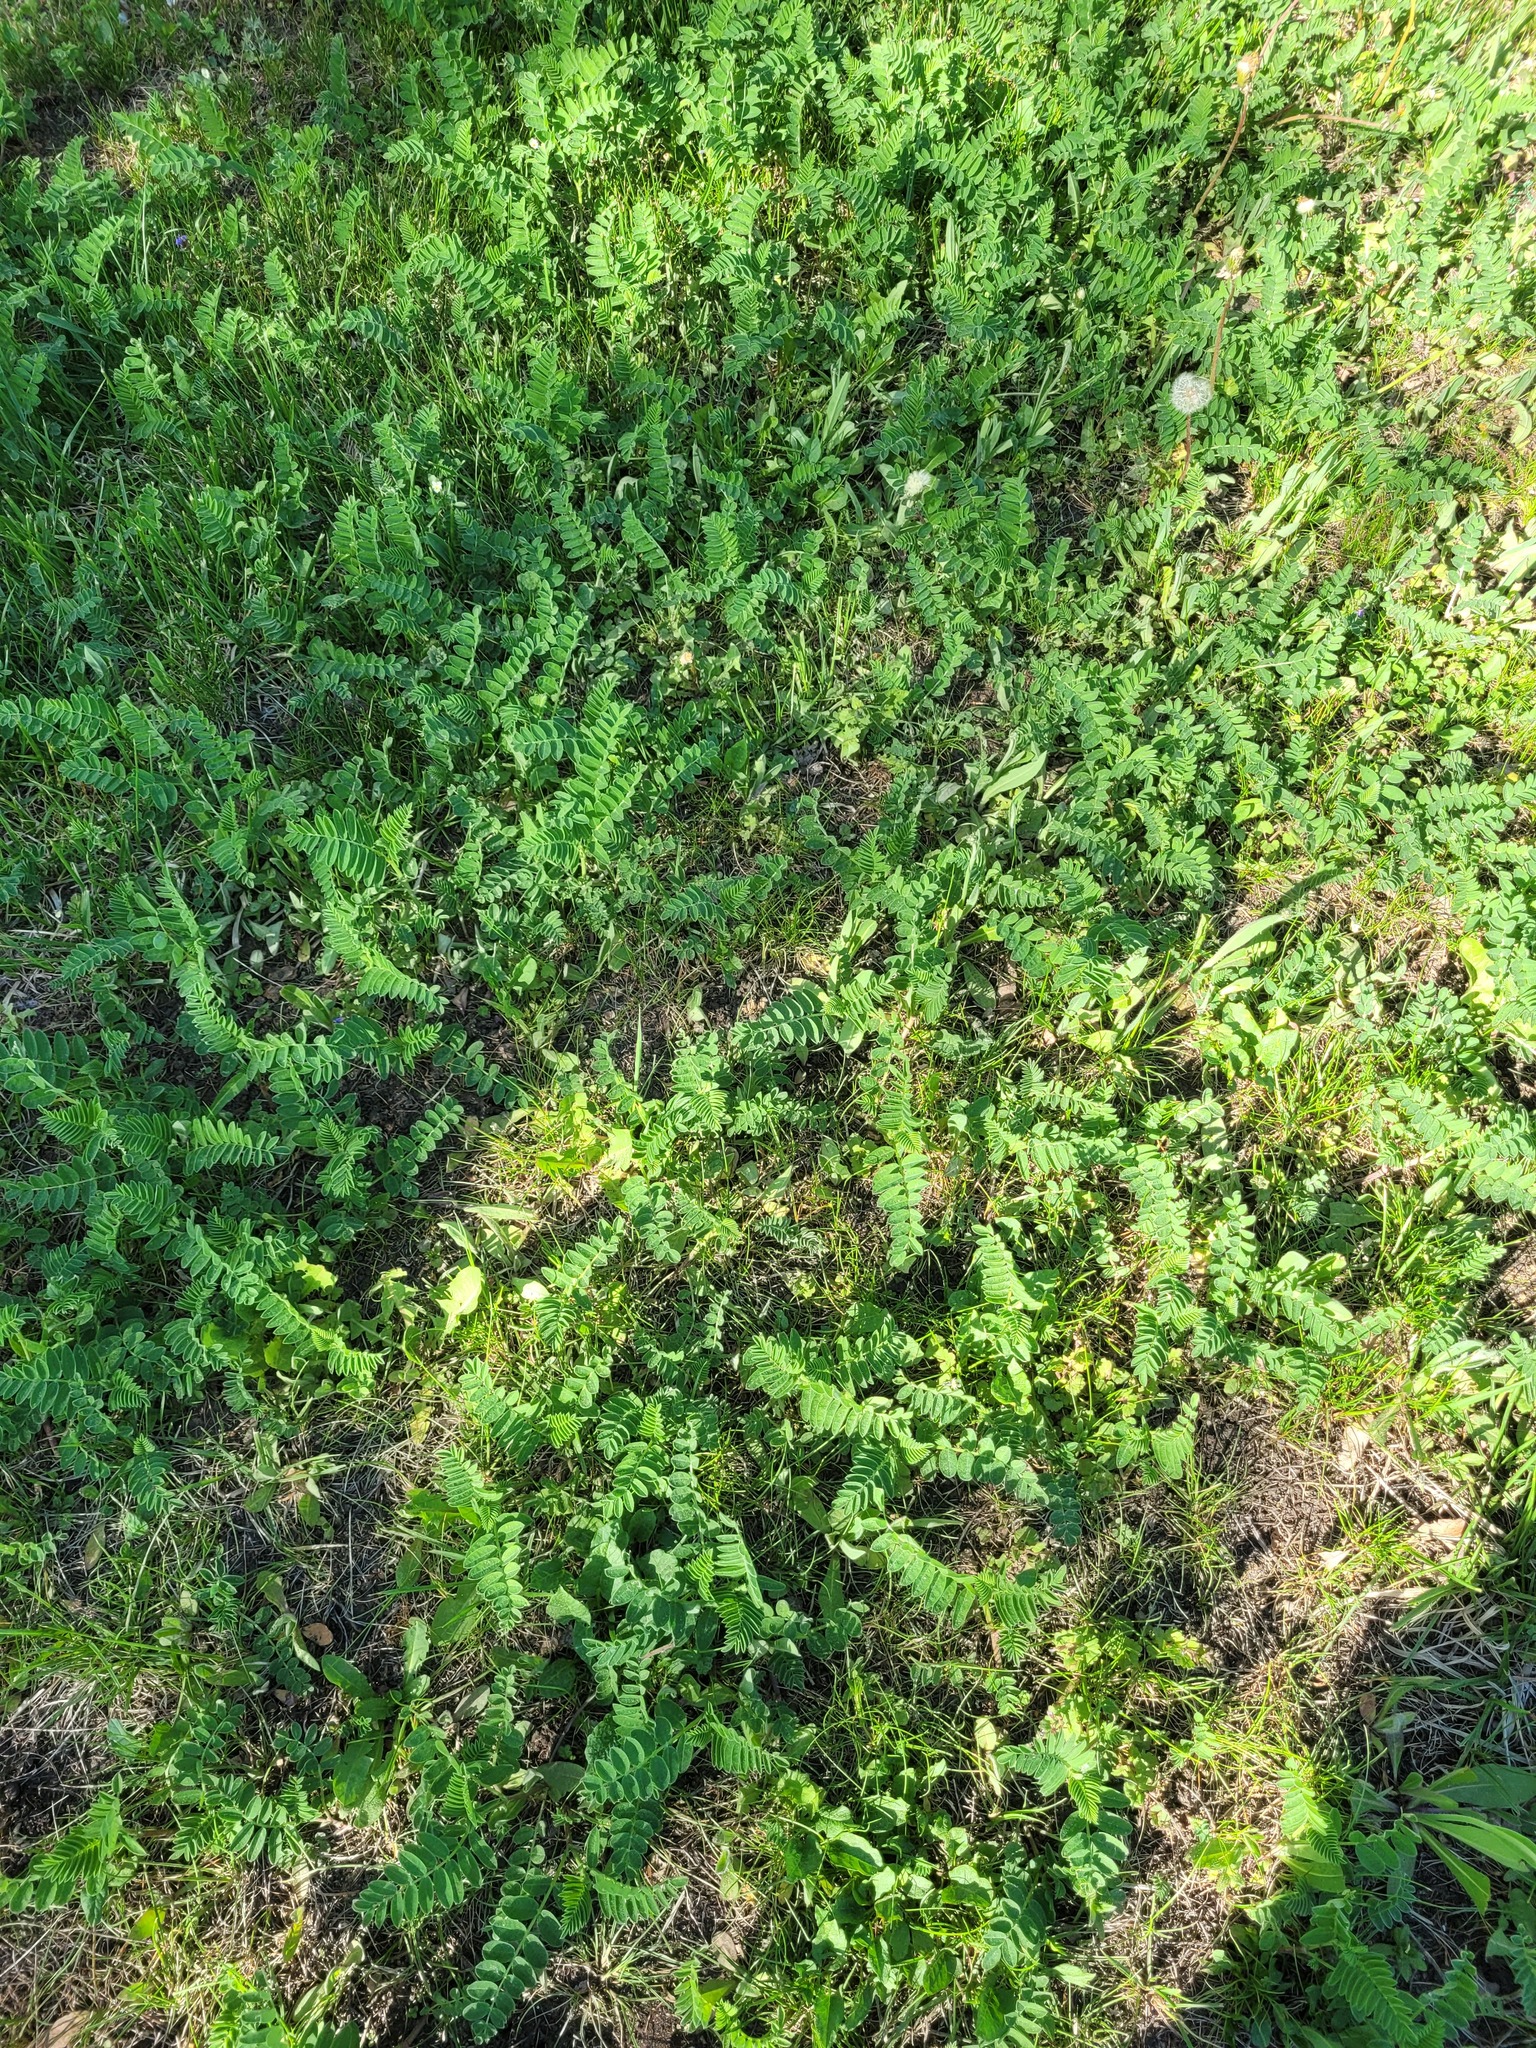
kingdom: Plantae
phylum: Tracheophyta
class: Magnoliopsida
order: Fabales
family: Fabaceae
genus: Astragalus
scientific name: Astragalus cicer
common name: Chick-pea milk-vetch
